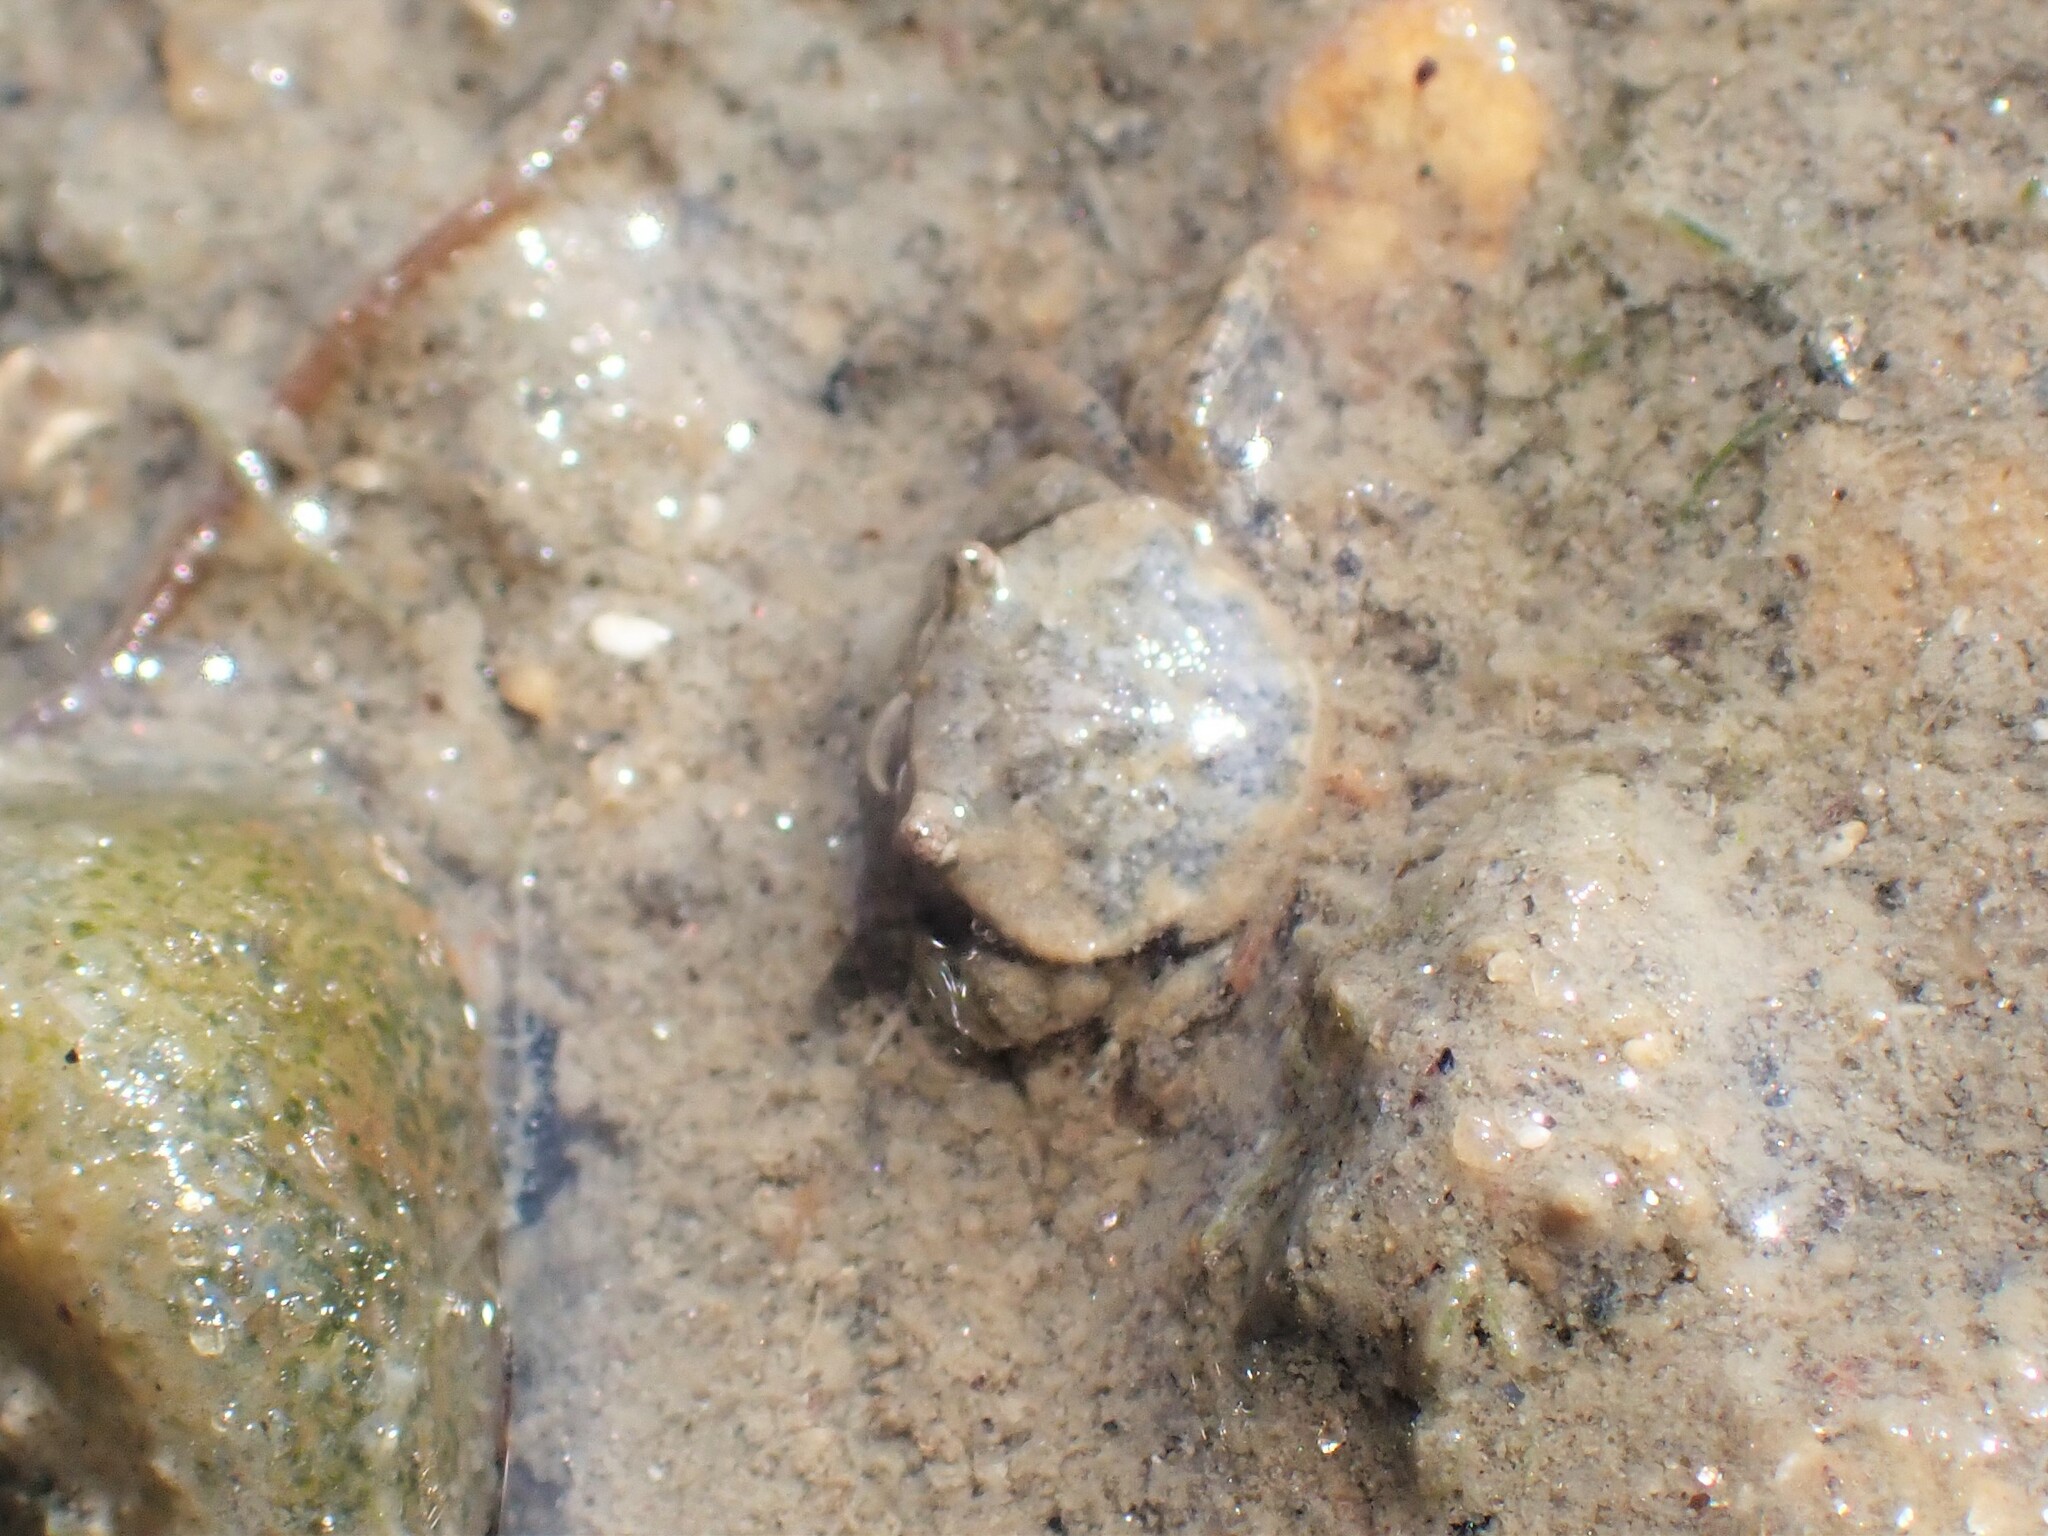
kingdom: Animalia
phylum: Arthropoda
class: Malacostraca
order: Decapoda
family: Carcinidae
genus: Carcinus
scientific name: Carcinus maenas
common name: European green crab
